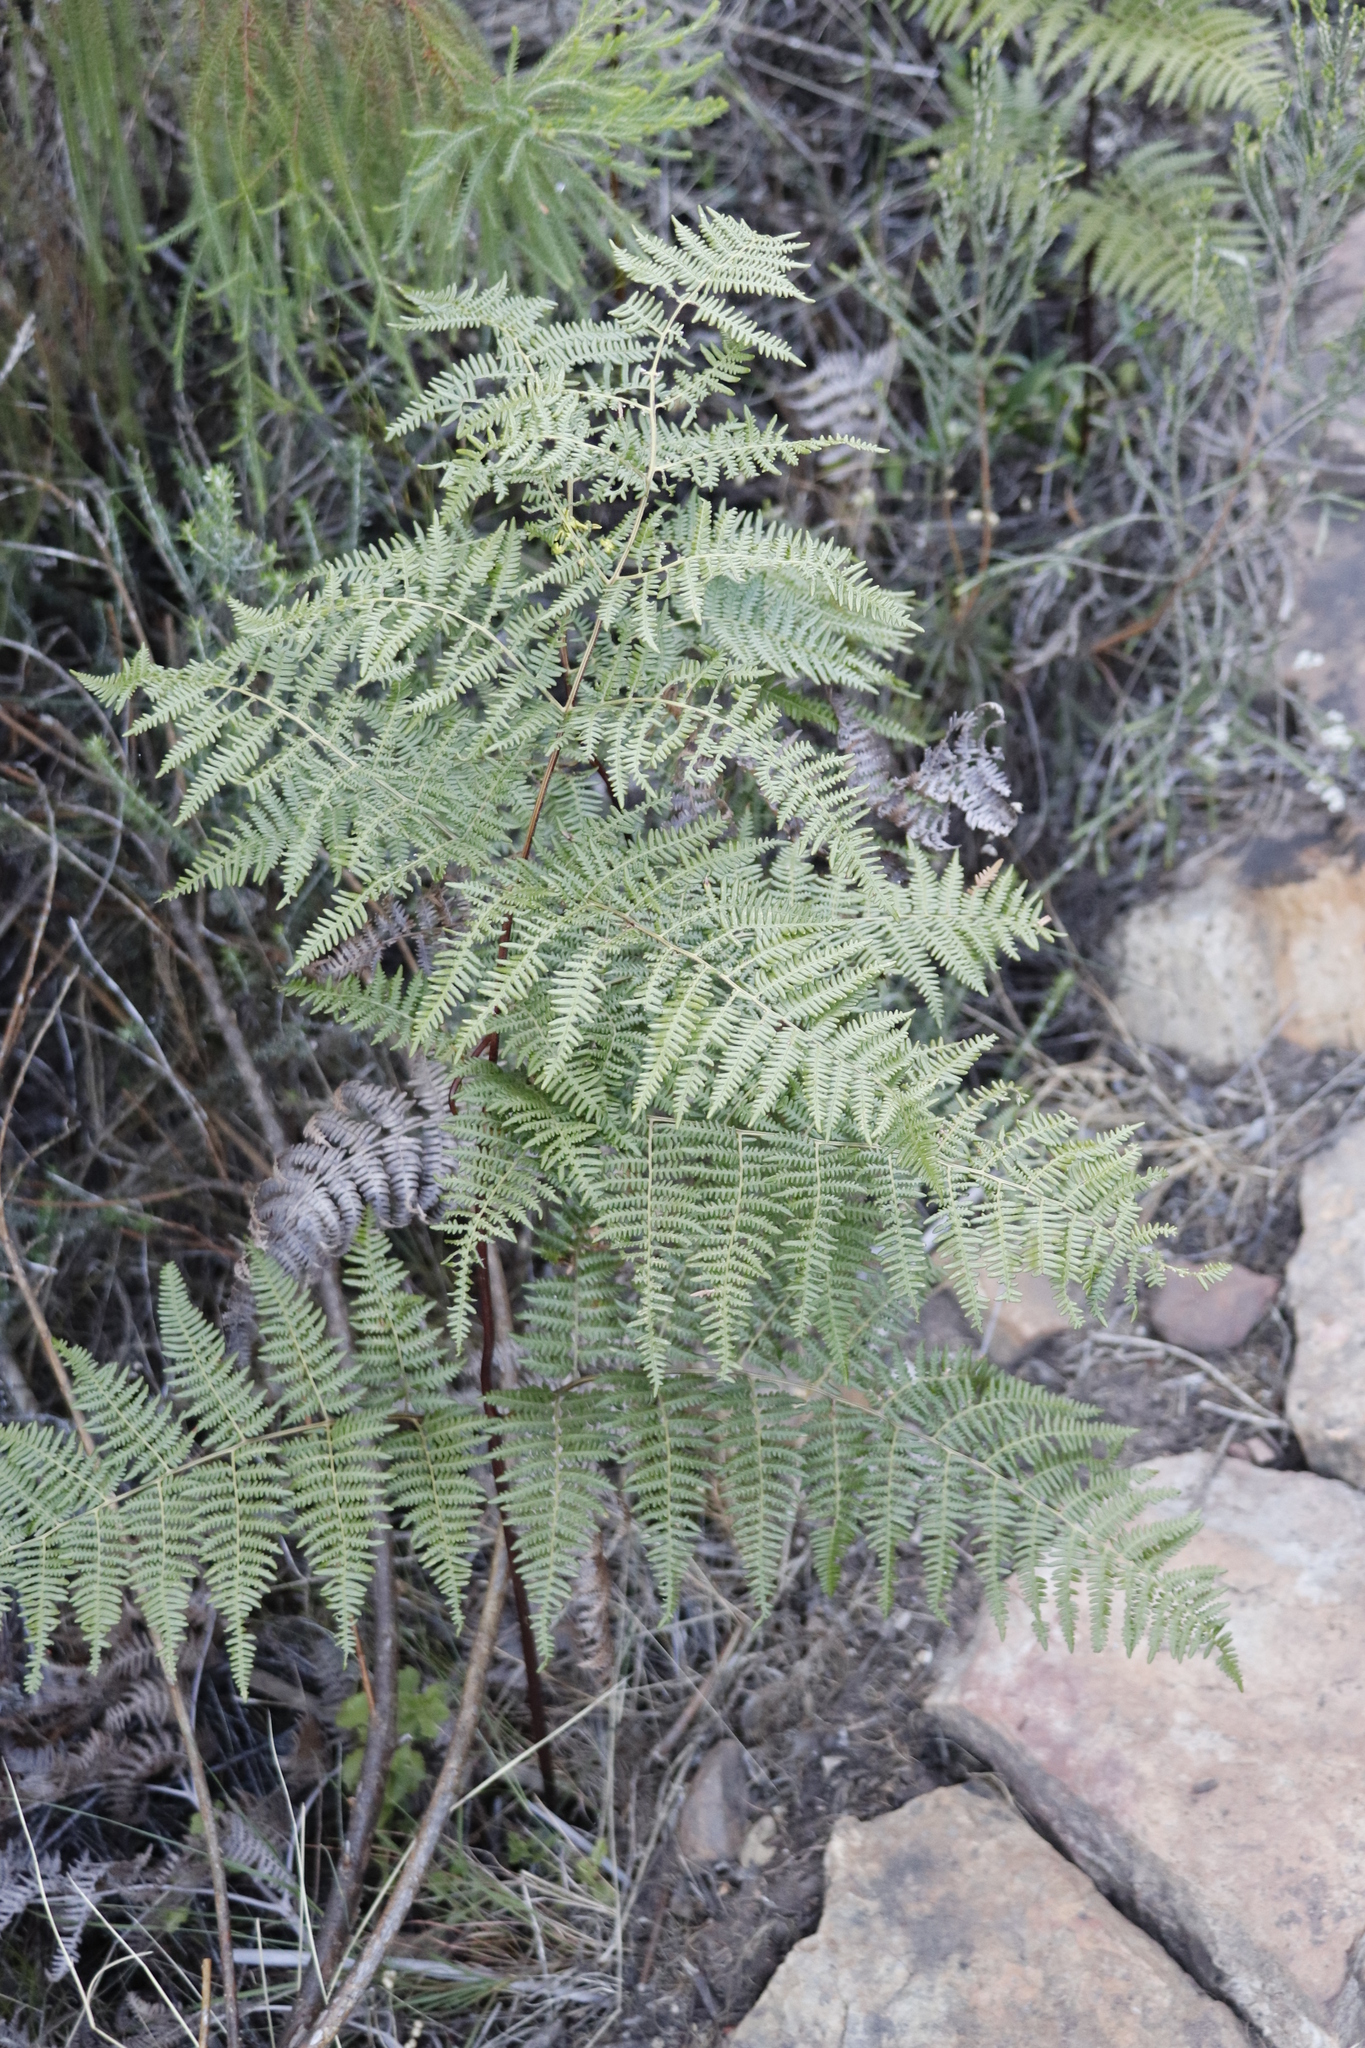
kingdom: Plantae
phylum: Tracheophyta
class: Polypodiopsida
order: Polypodiales
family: Dennstaedtiaceae
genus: Pteridium
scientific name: Pteridium aquilinum
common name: Bracken
